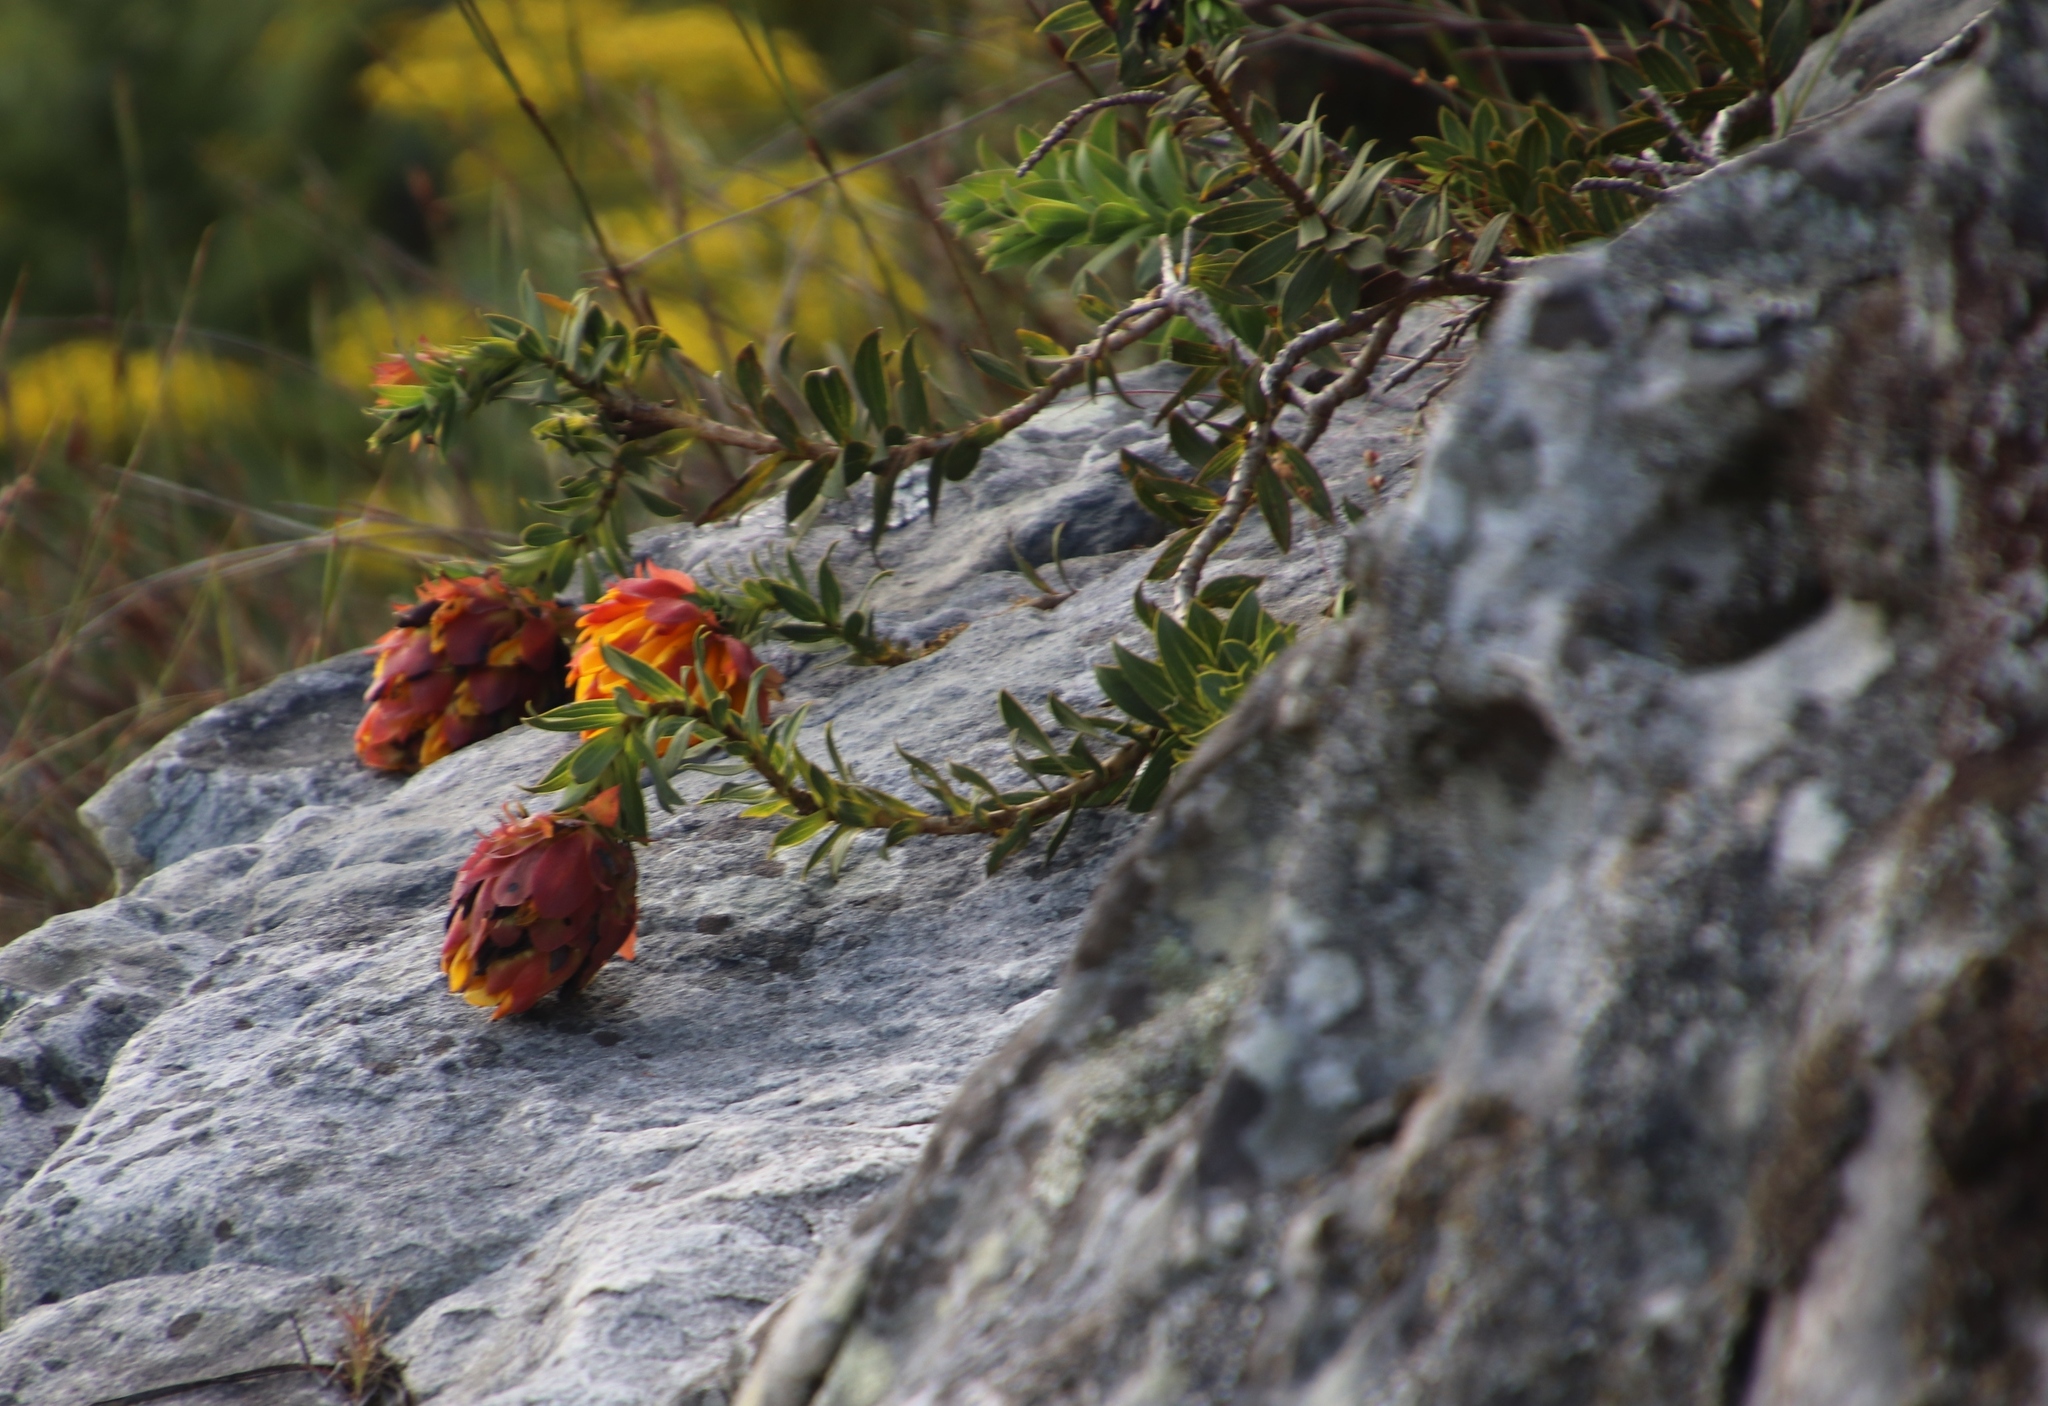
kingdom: Plantae
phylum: Tracheophyta
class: Magnoliopsida
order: Fabales
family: Fabaceae
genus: Liparia
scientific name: Liparia splendens
